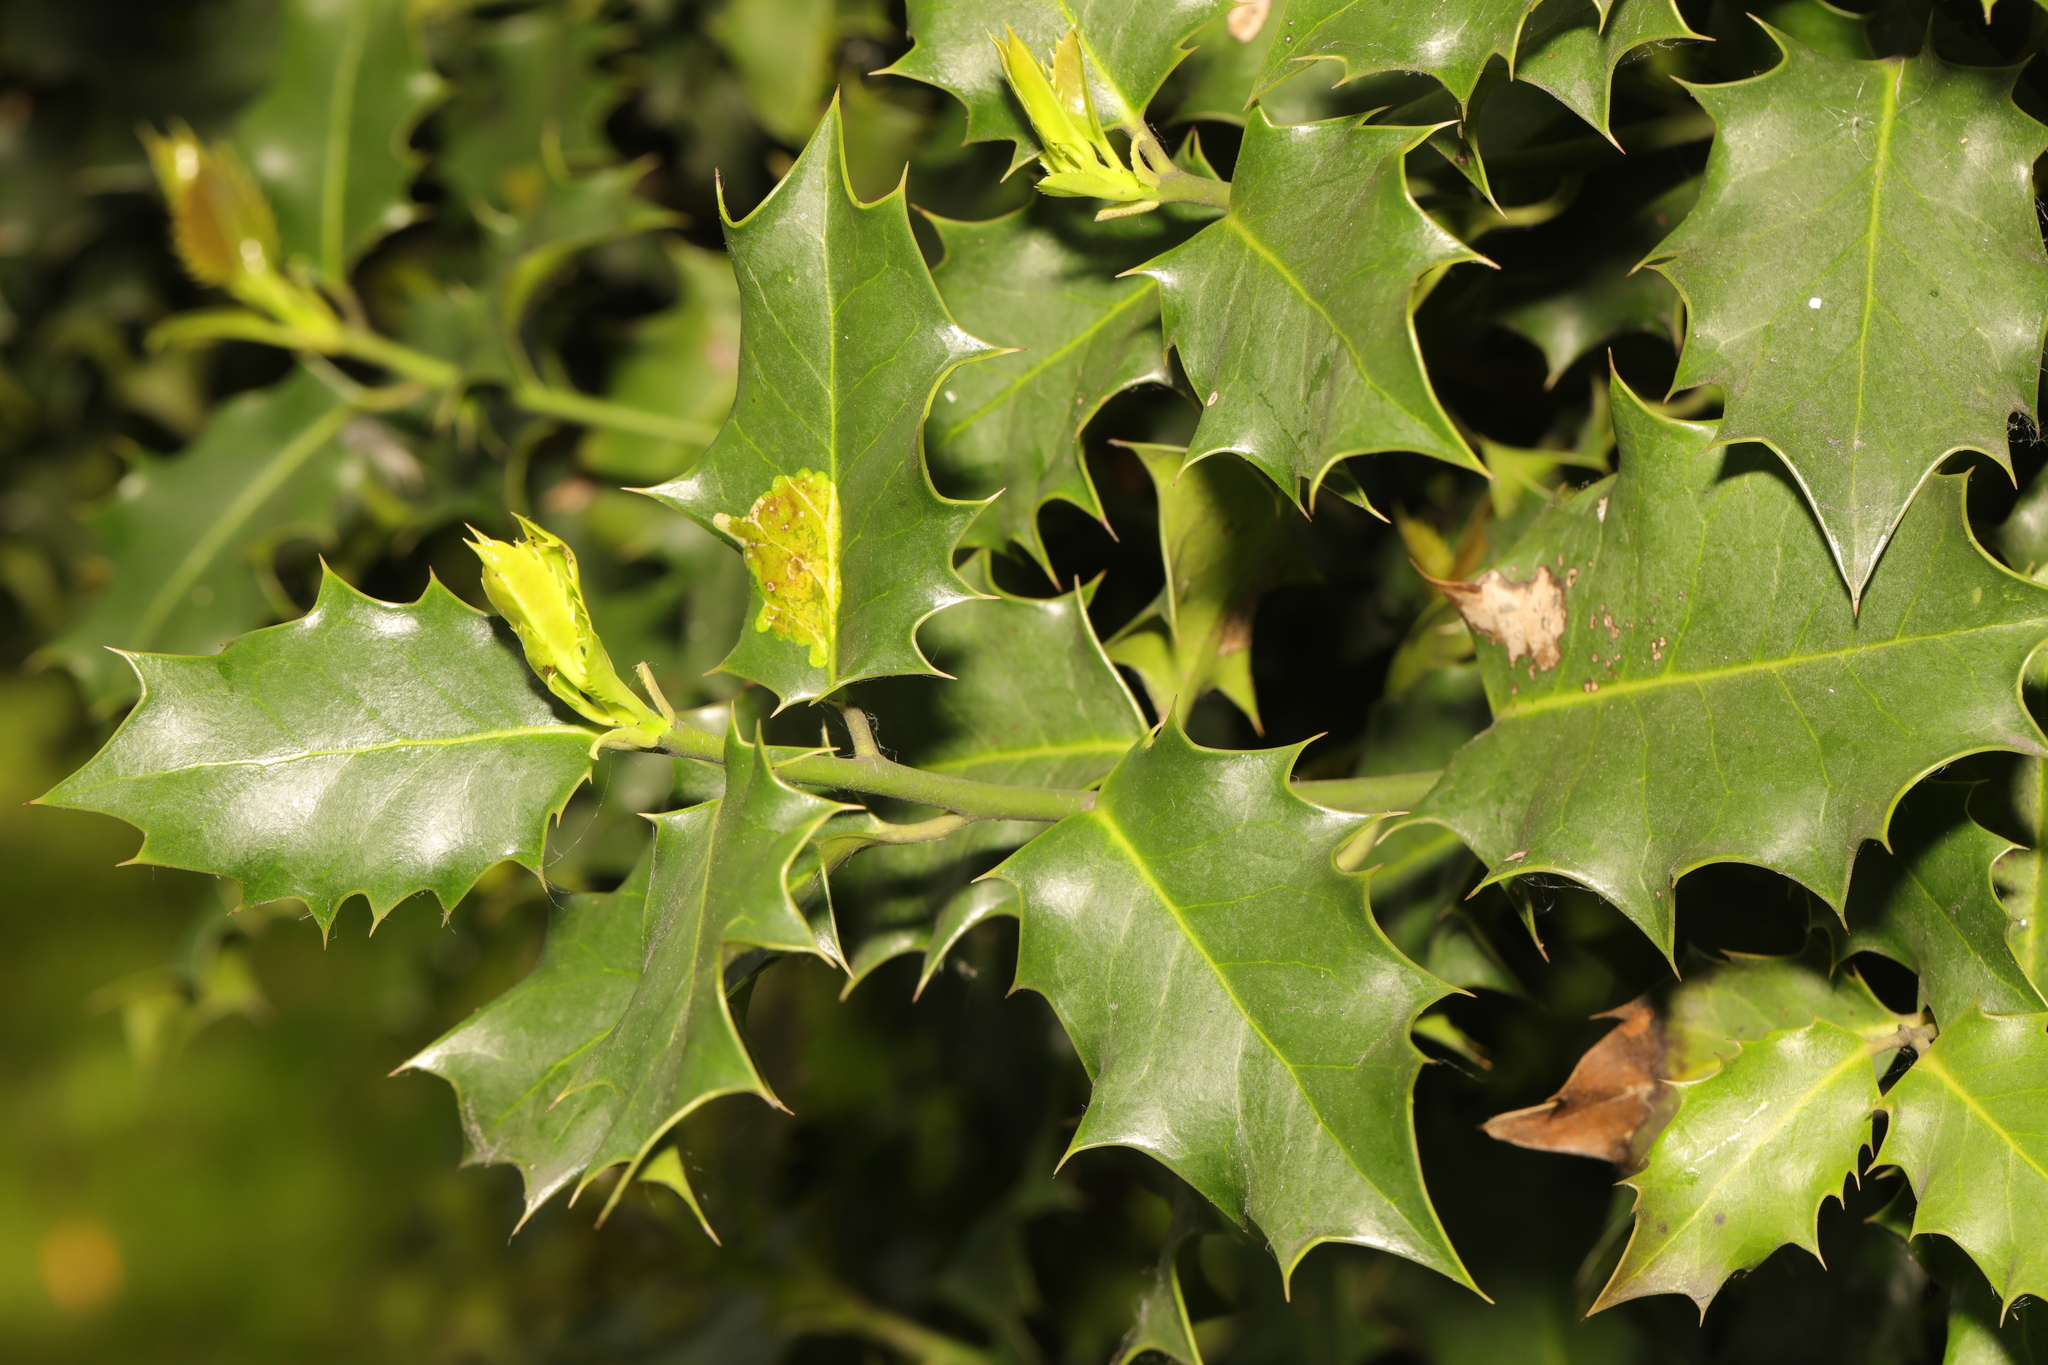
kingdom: Plantae
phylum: Tracheophyta
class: Magnoliopsida
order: Aquifoliales
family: Aquifoliaceae
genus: Ilex
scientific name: Ilex aquifolium
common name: English holly
